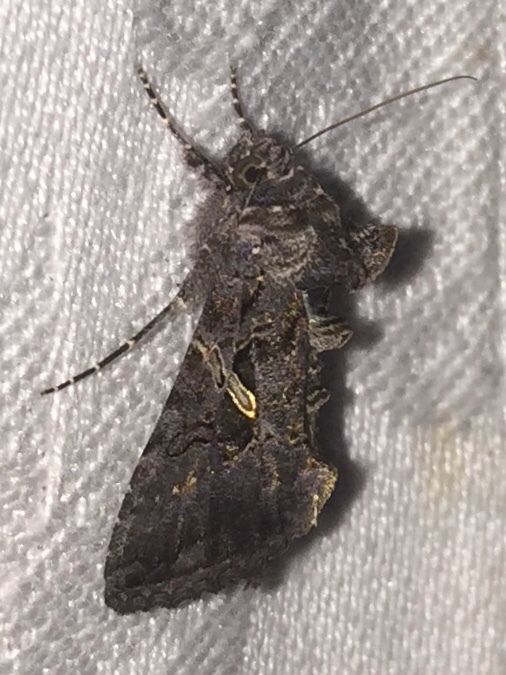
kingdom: Animalia
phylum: Arthropoda
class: Insecta
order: Lepidoptera
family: Noctuidae
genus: Ctenoplusia
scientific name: Ctenoplusia oxygramma
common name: Sharp-stigma looper moth
